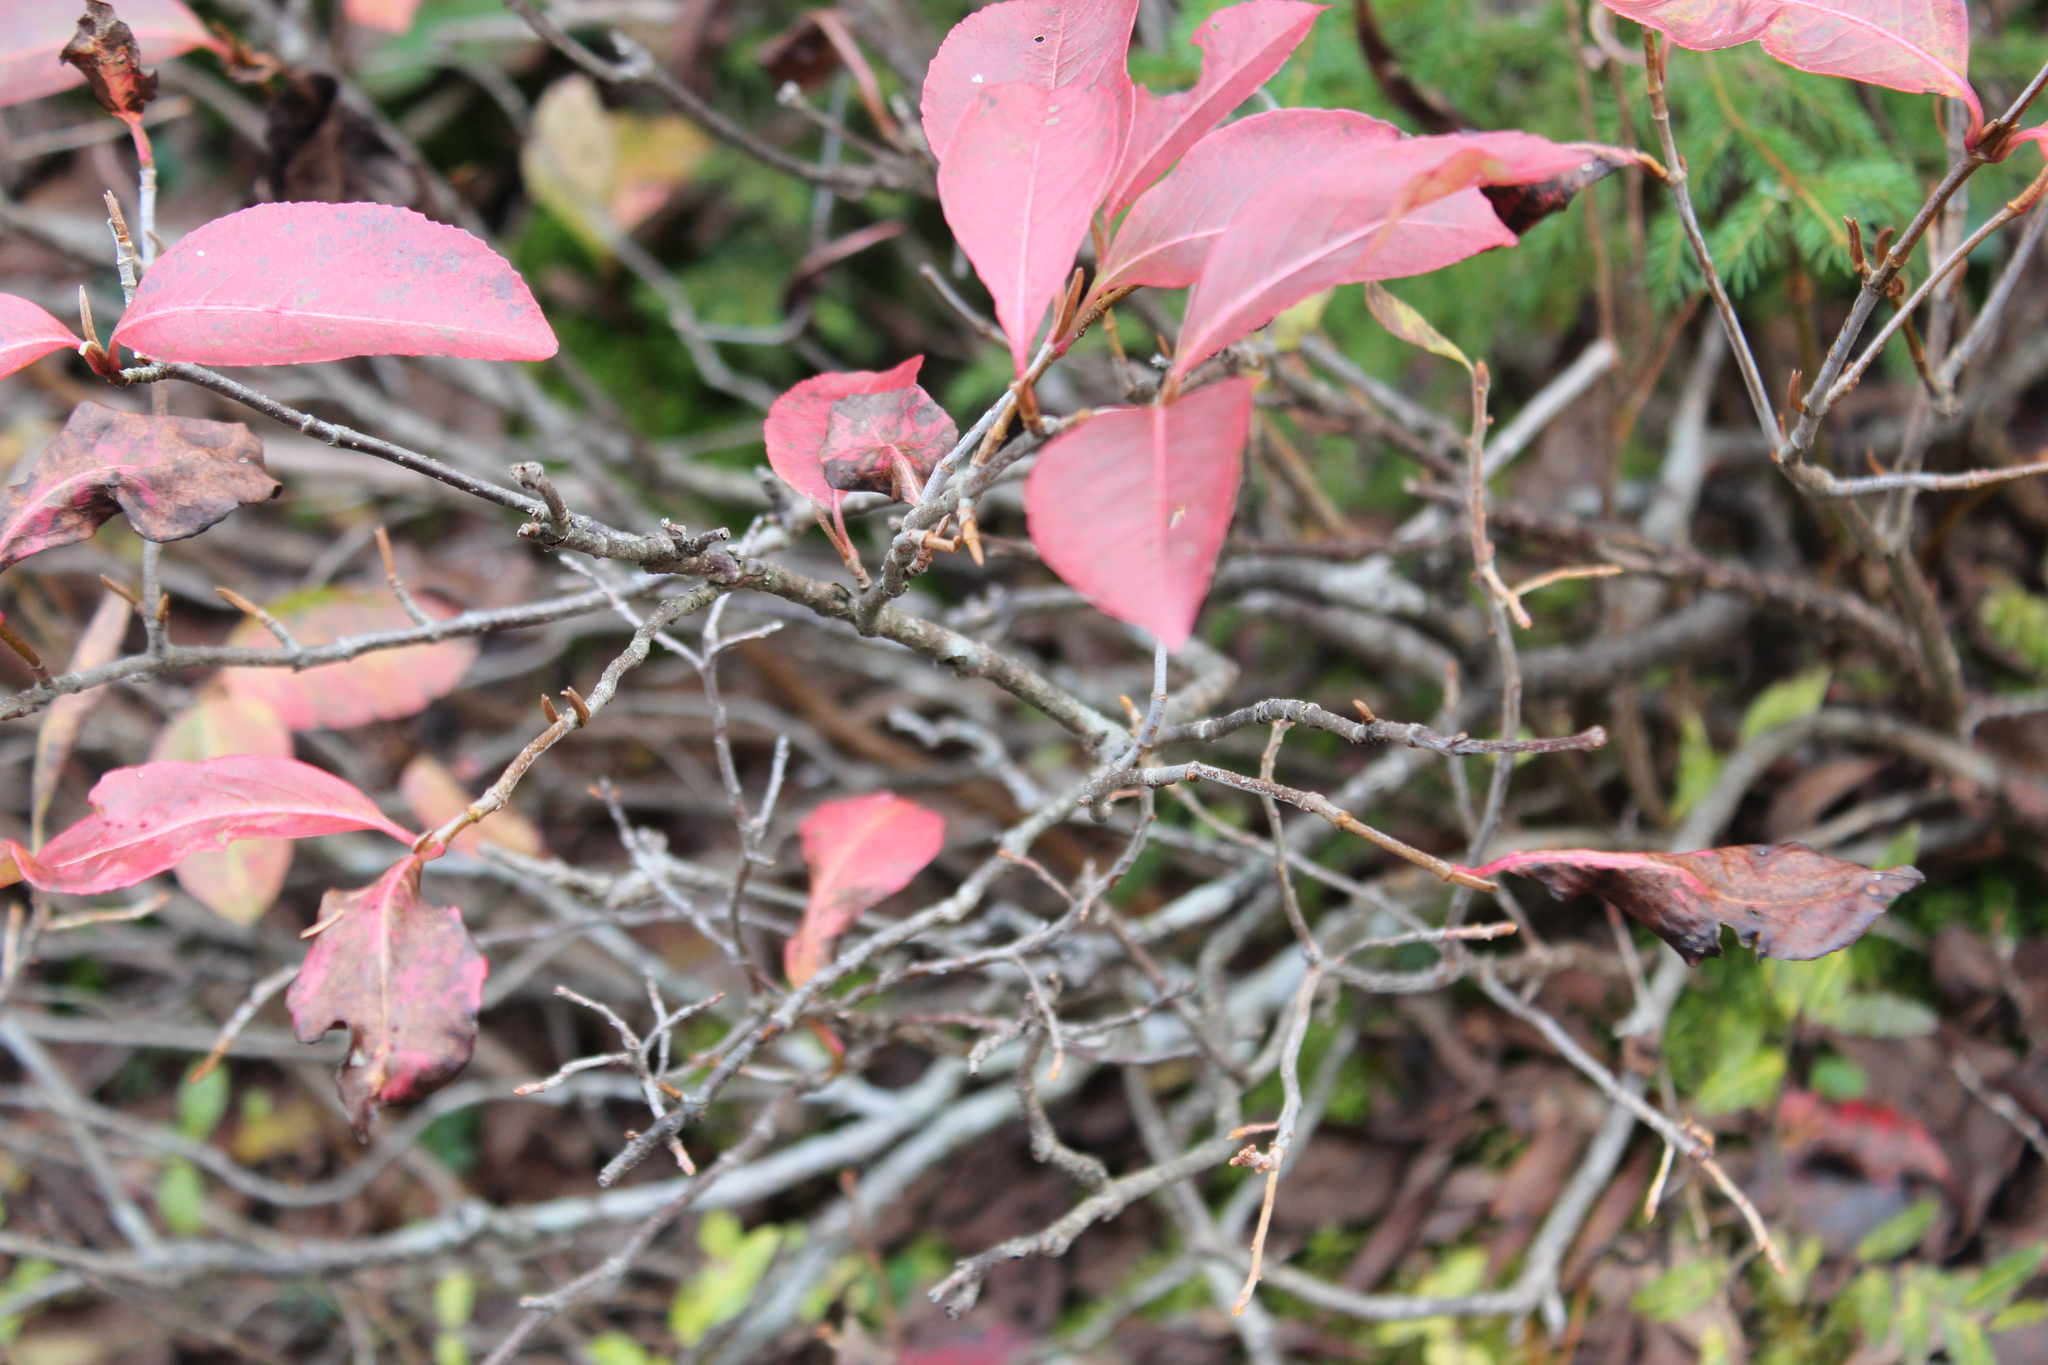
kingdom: Plantae
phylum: Tracheophyta
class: Magnoliopsida
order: Dipsacales
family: Viburnaceae
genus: Viburnum
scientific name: Viburnum cassinoides
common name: Swamp haw
